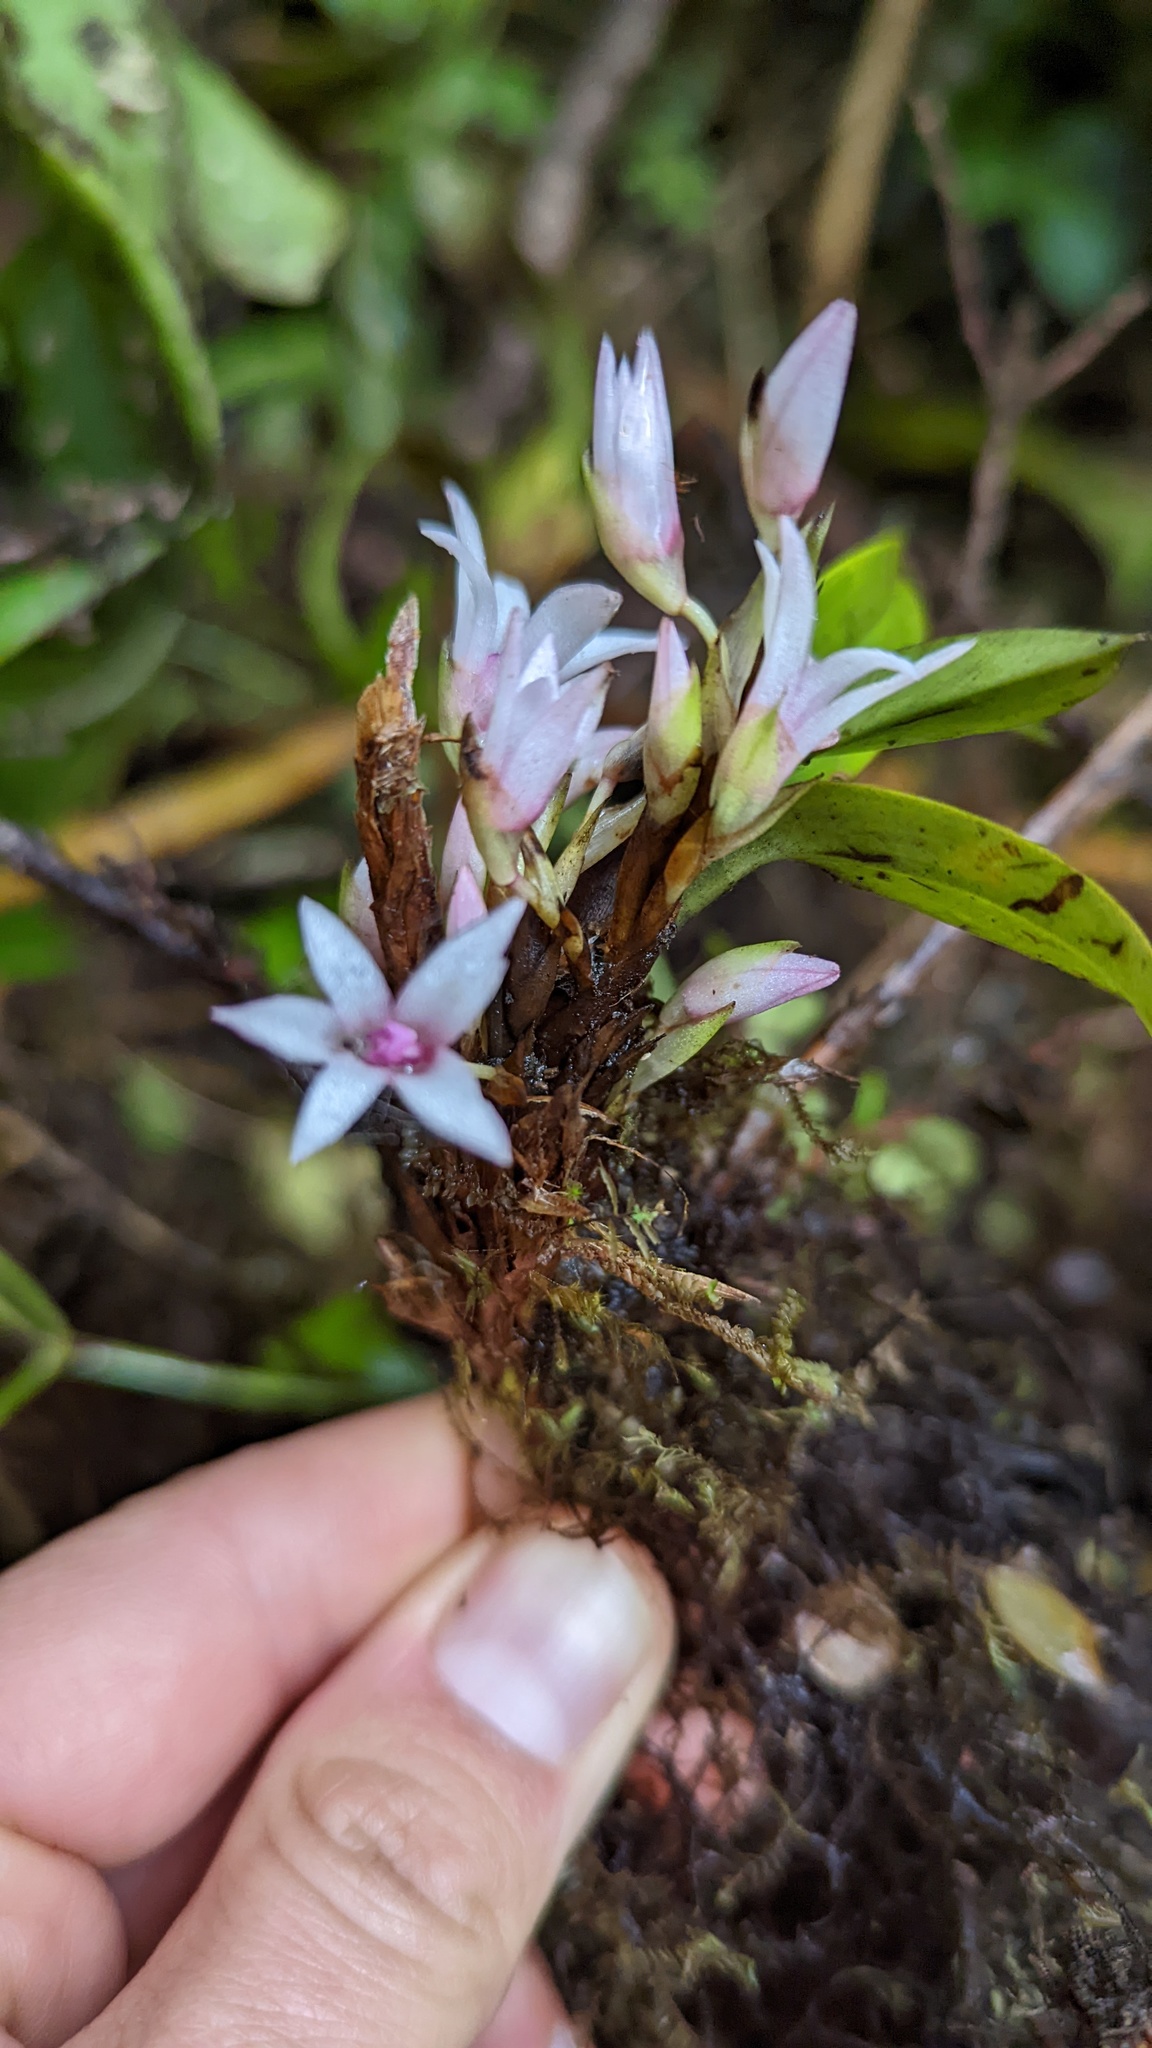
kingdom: Plantae
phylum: Tracheophyta
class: Liliopsida
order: Asparagales
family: Orchidaceae
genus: Maxillaria
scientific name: Maxillaria schlechteriana
